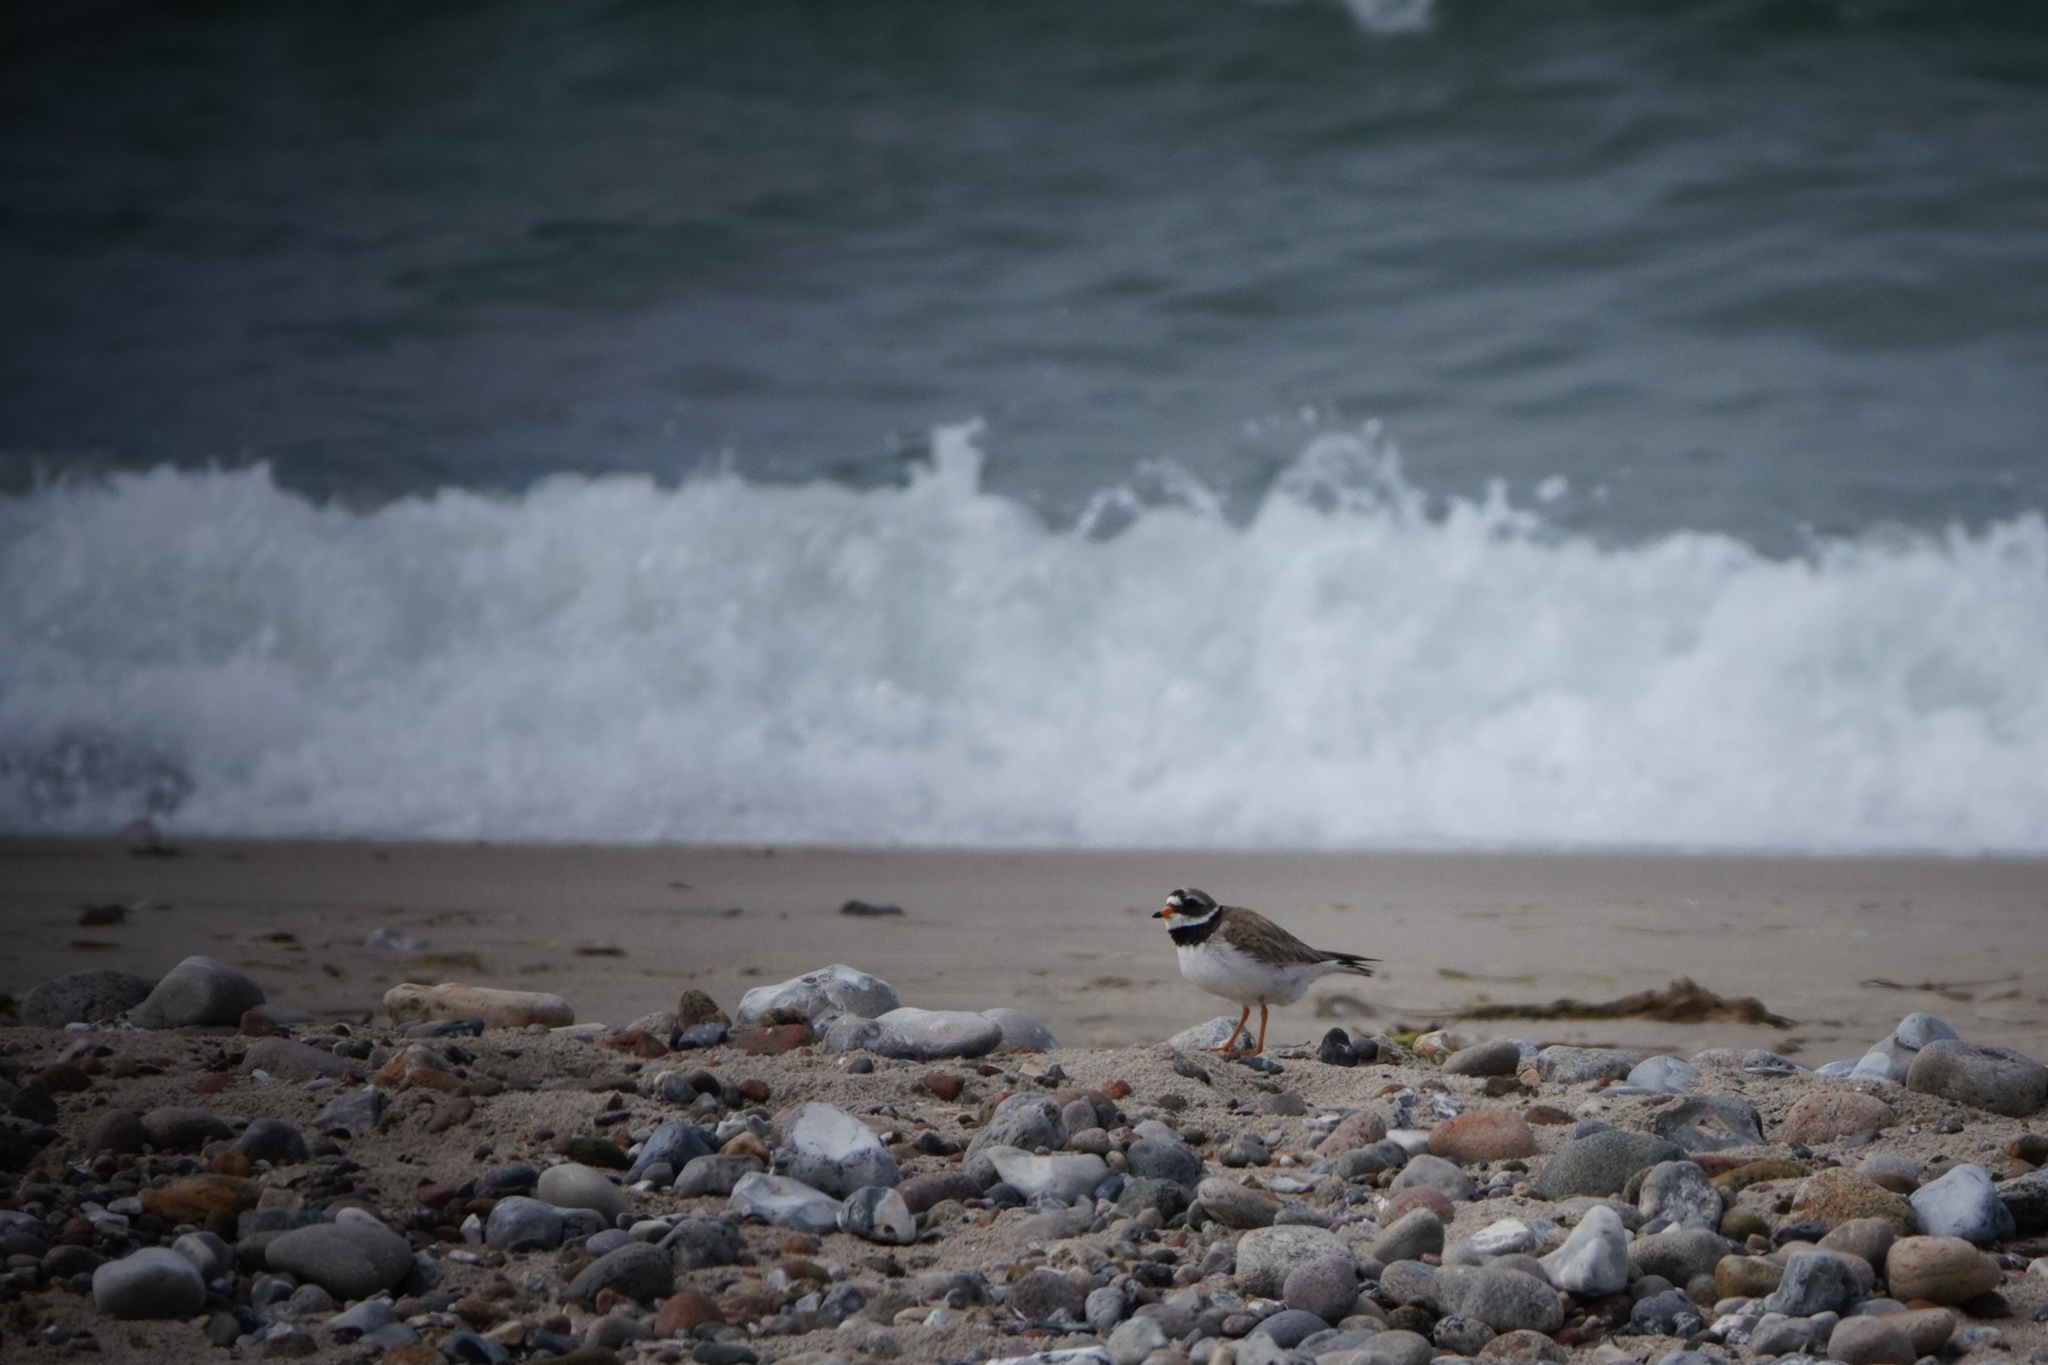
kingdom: Animalia
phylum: Chordata
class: Aves
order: Charadriiformes
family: Charadriidae
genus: Charadrius
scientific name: Charadrius hiaticula
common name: Common ringed plover
